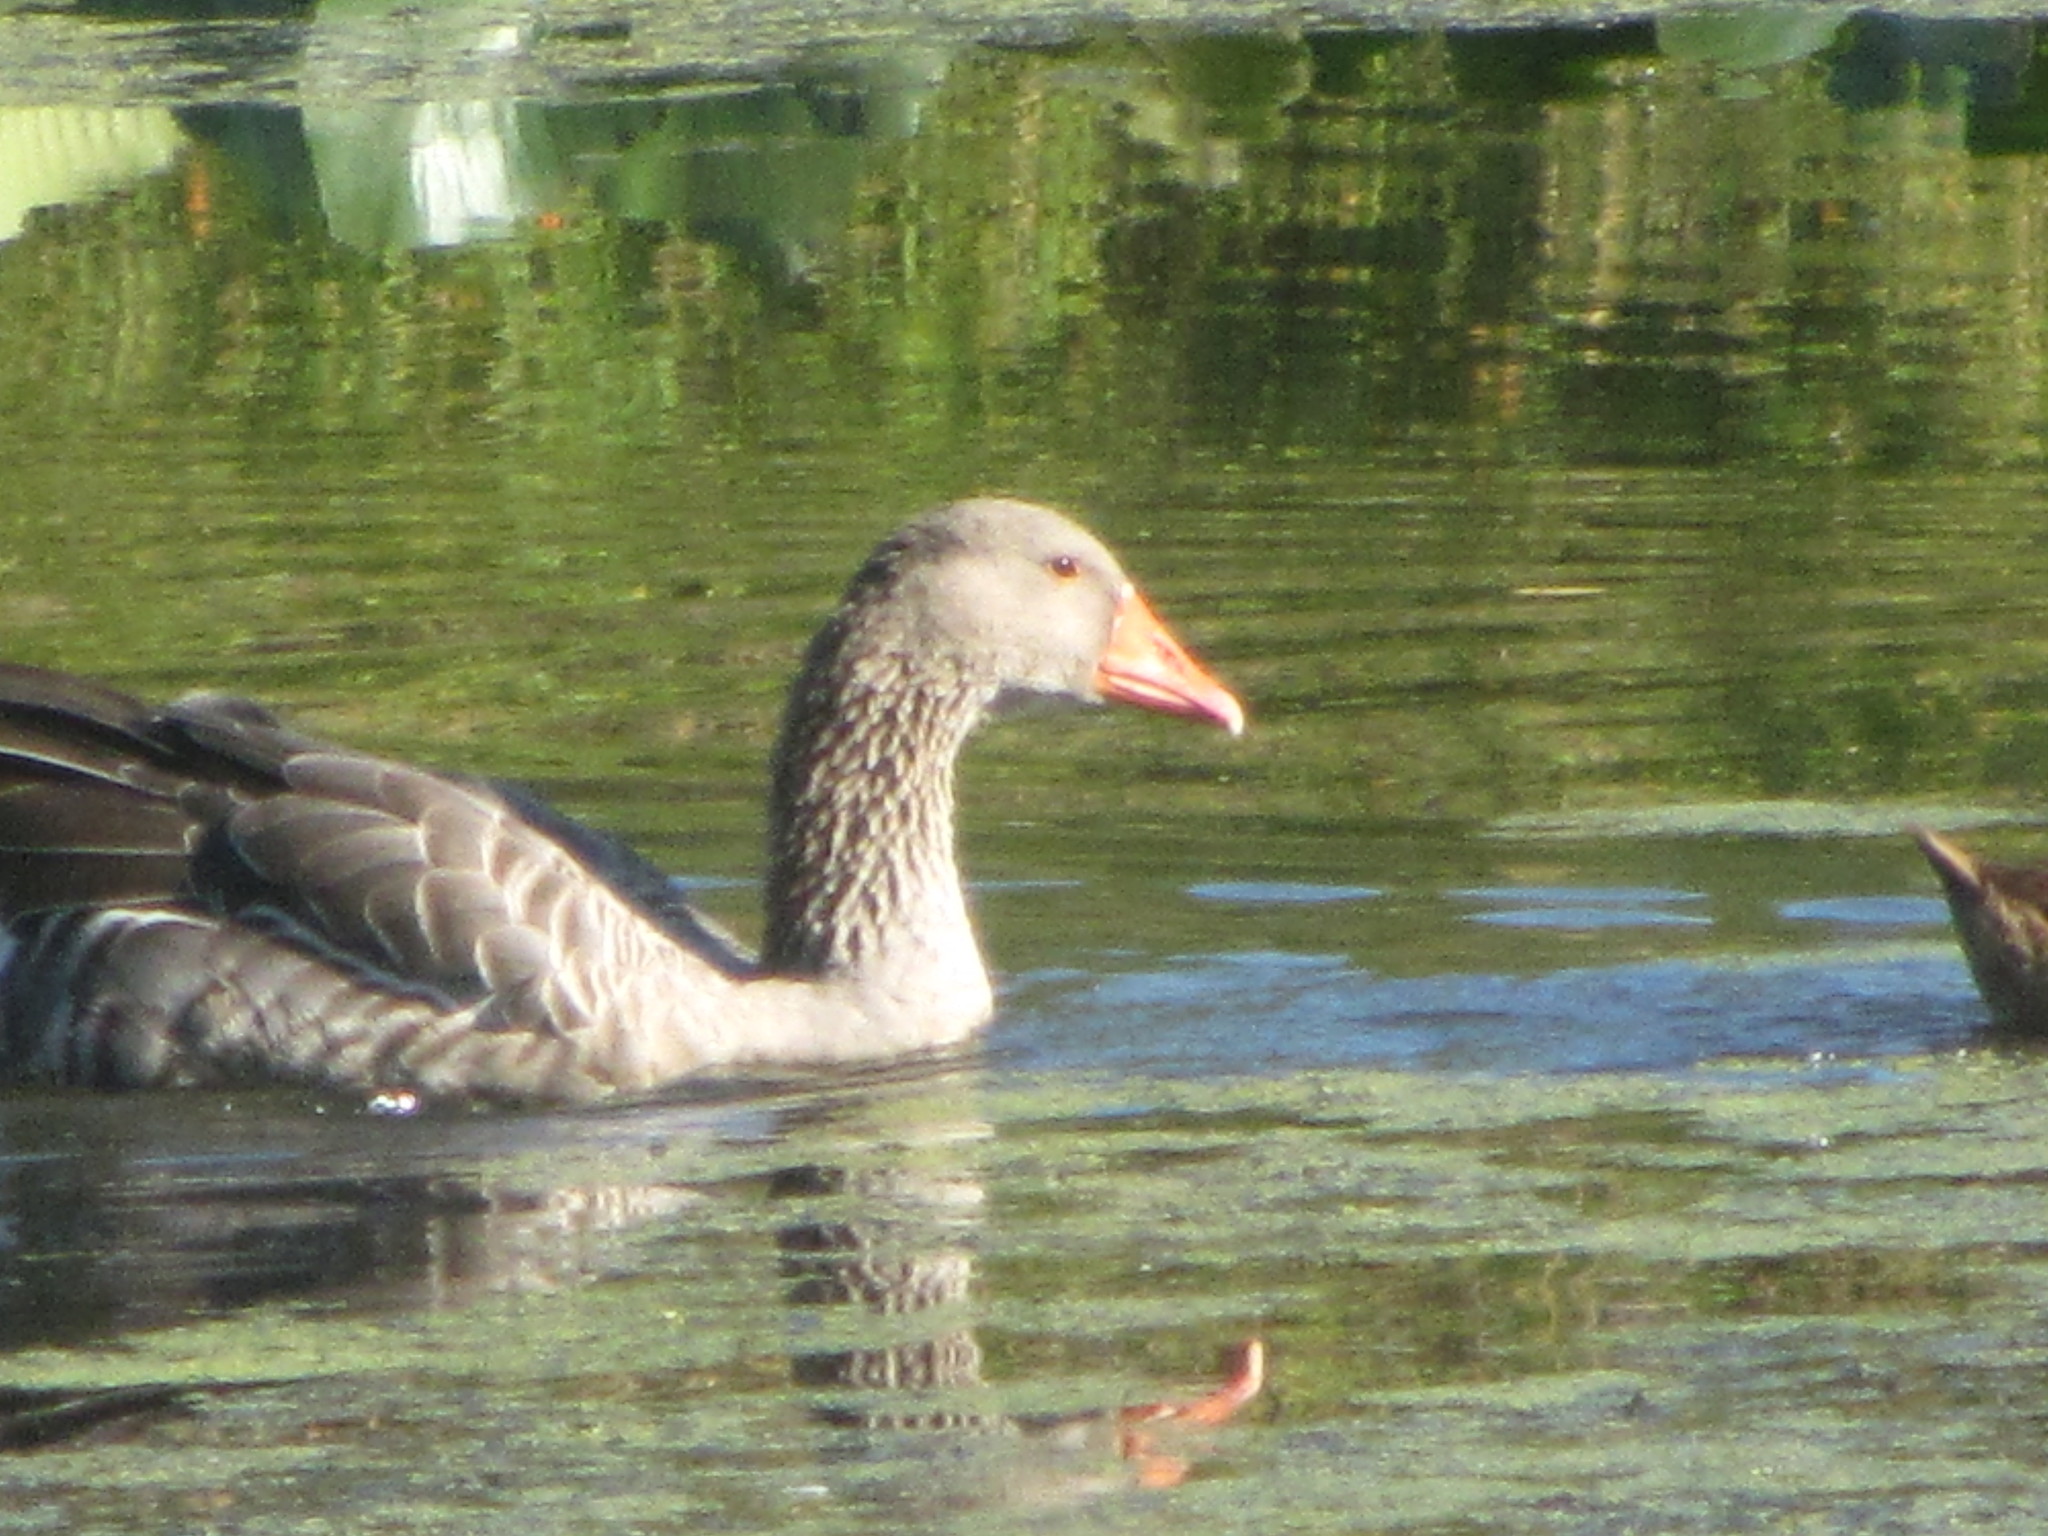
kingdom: Animalia
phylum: Chordata
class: Aves
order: Anseriformes
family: Anatidae
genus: Anser
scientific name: Anser anser
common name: Greylag goose
